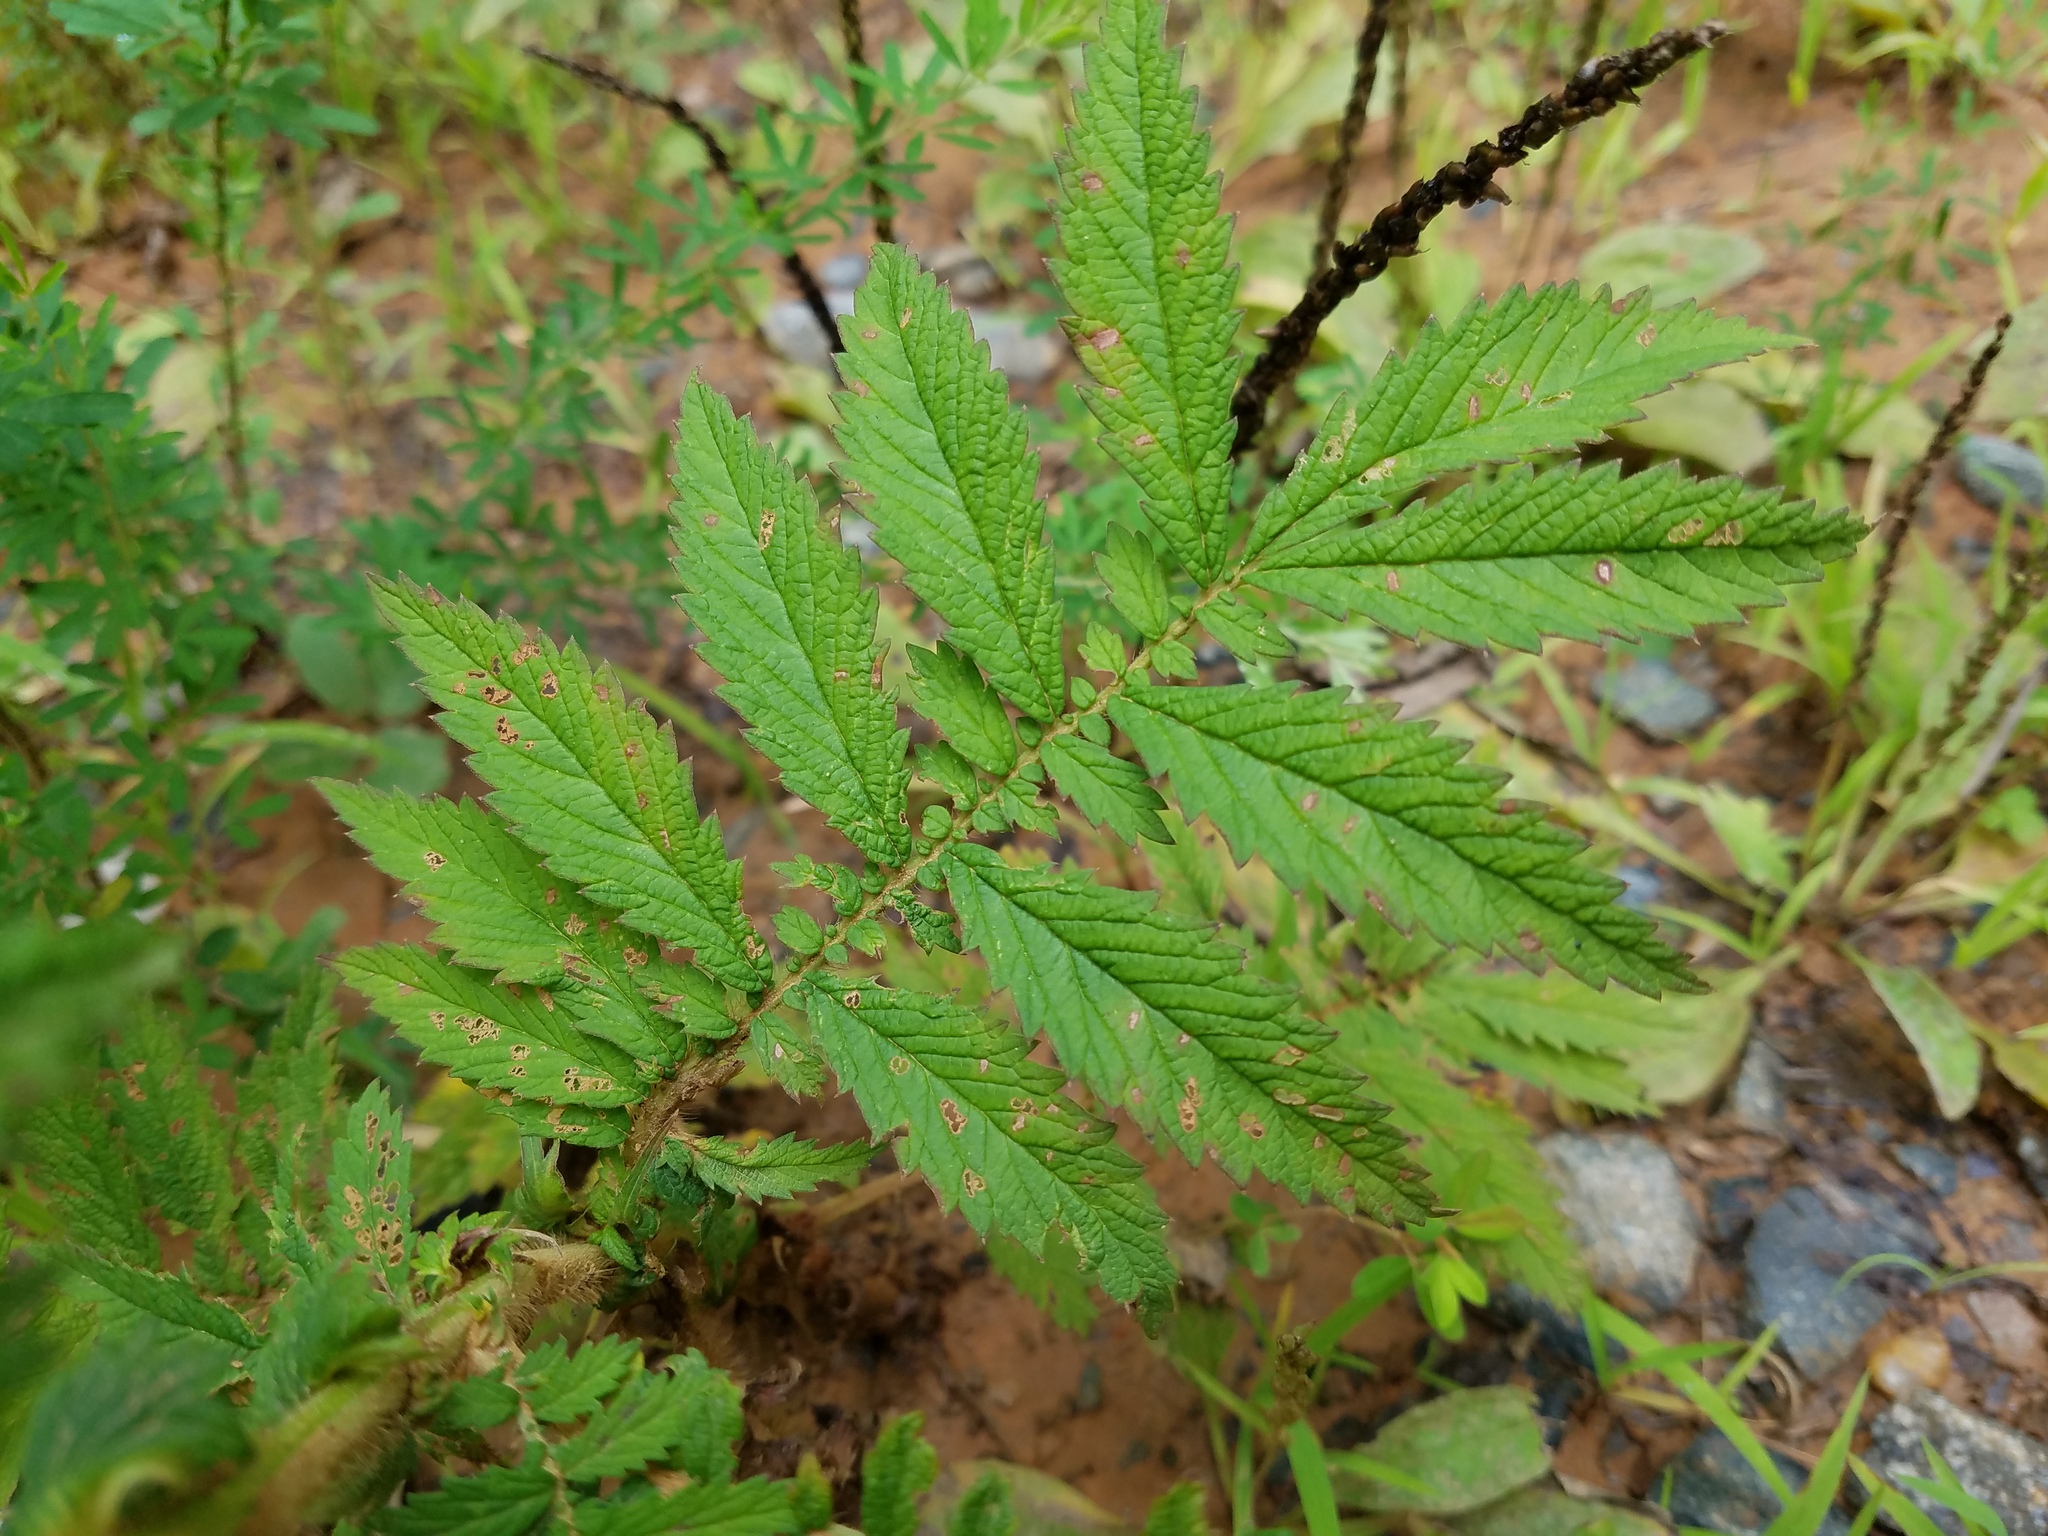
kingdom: Plantae
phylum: Tracheophyta
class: Magnoliopsida
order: Rosales
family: Rosaceae
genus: Agrimonia
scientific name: Agrimonia parviflora
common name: Harvest-lice
